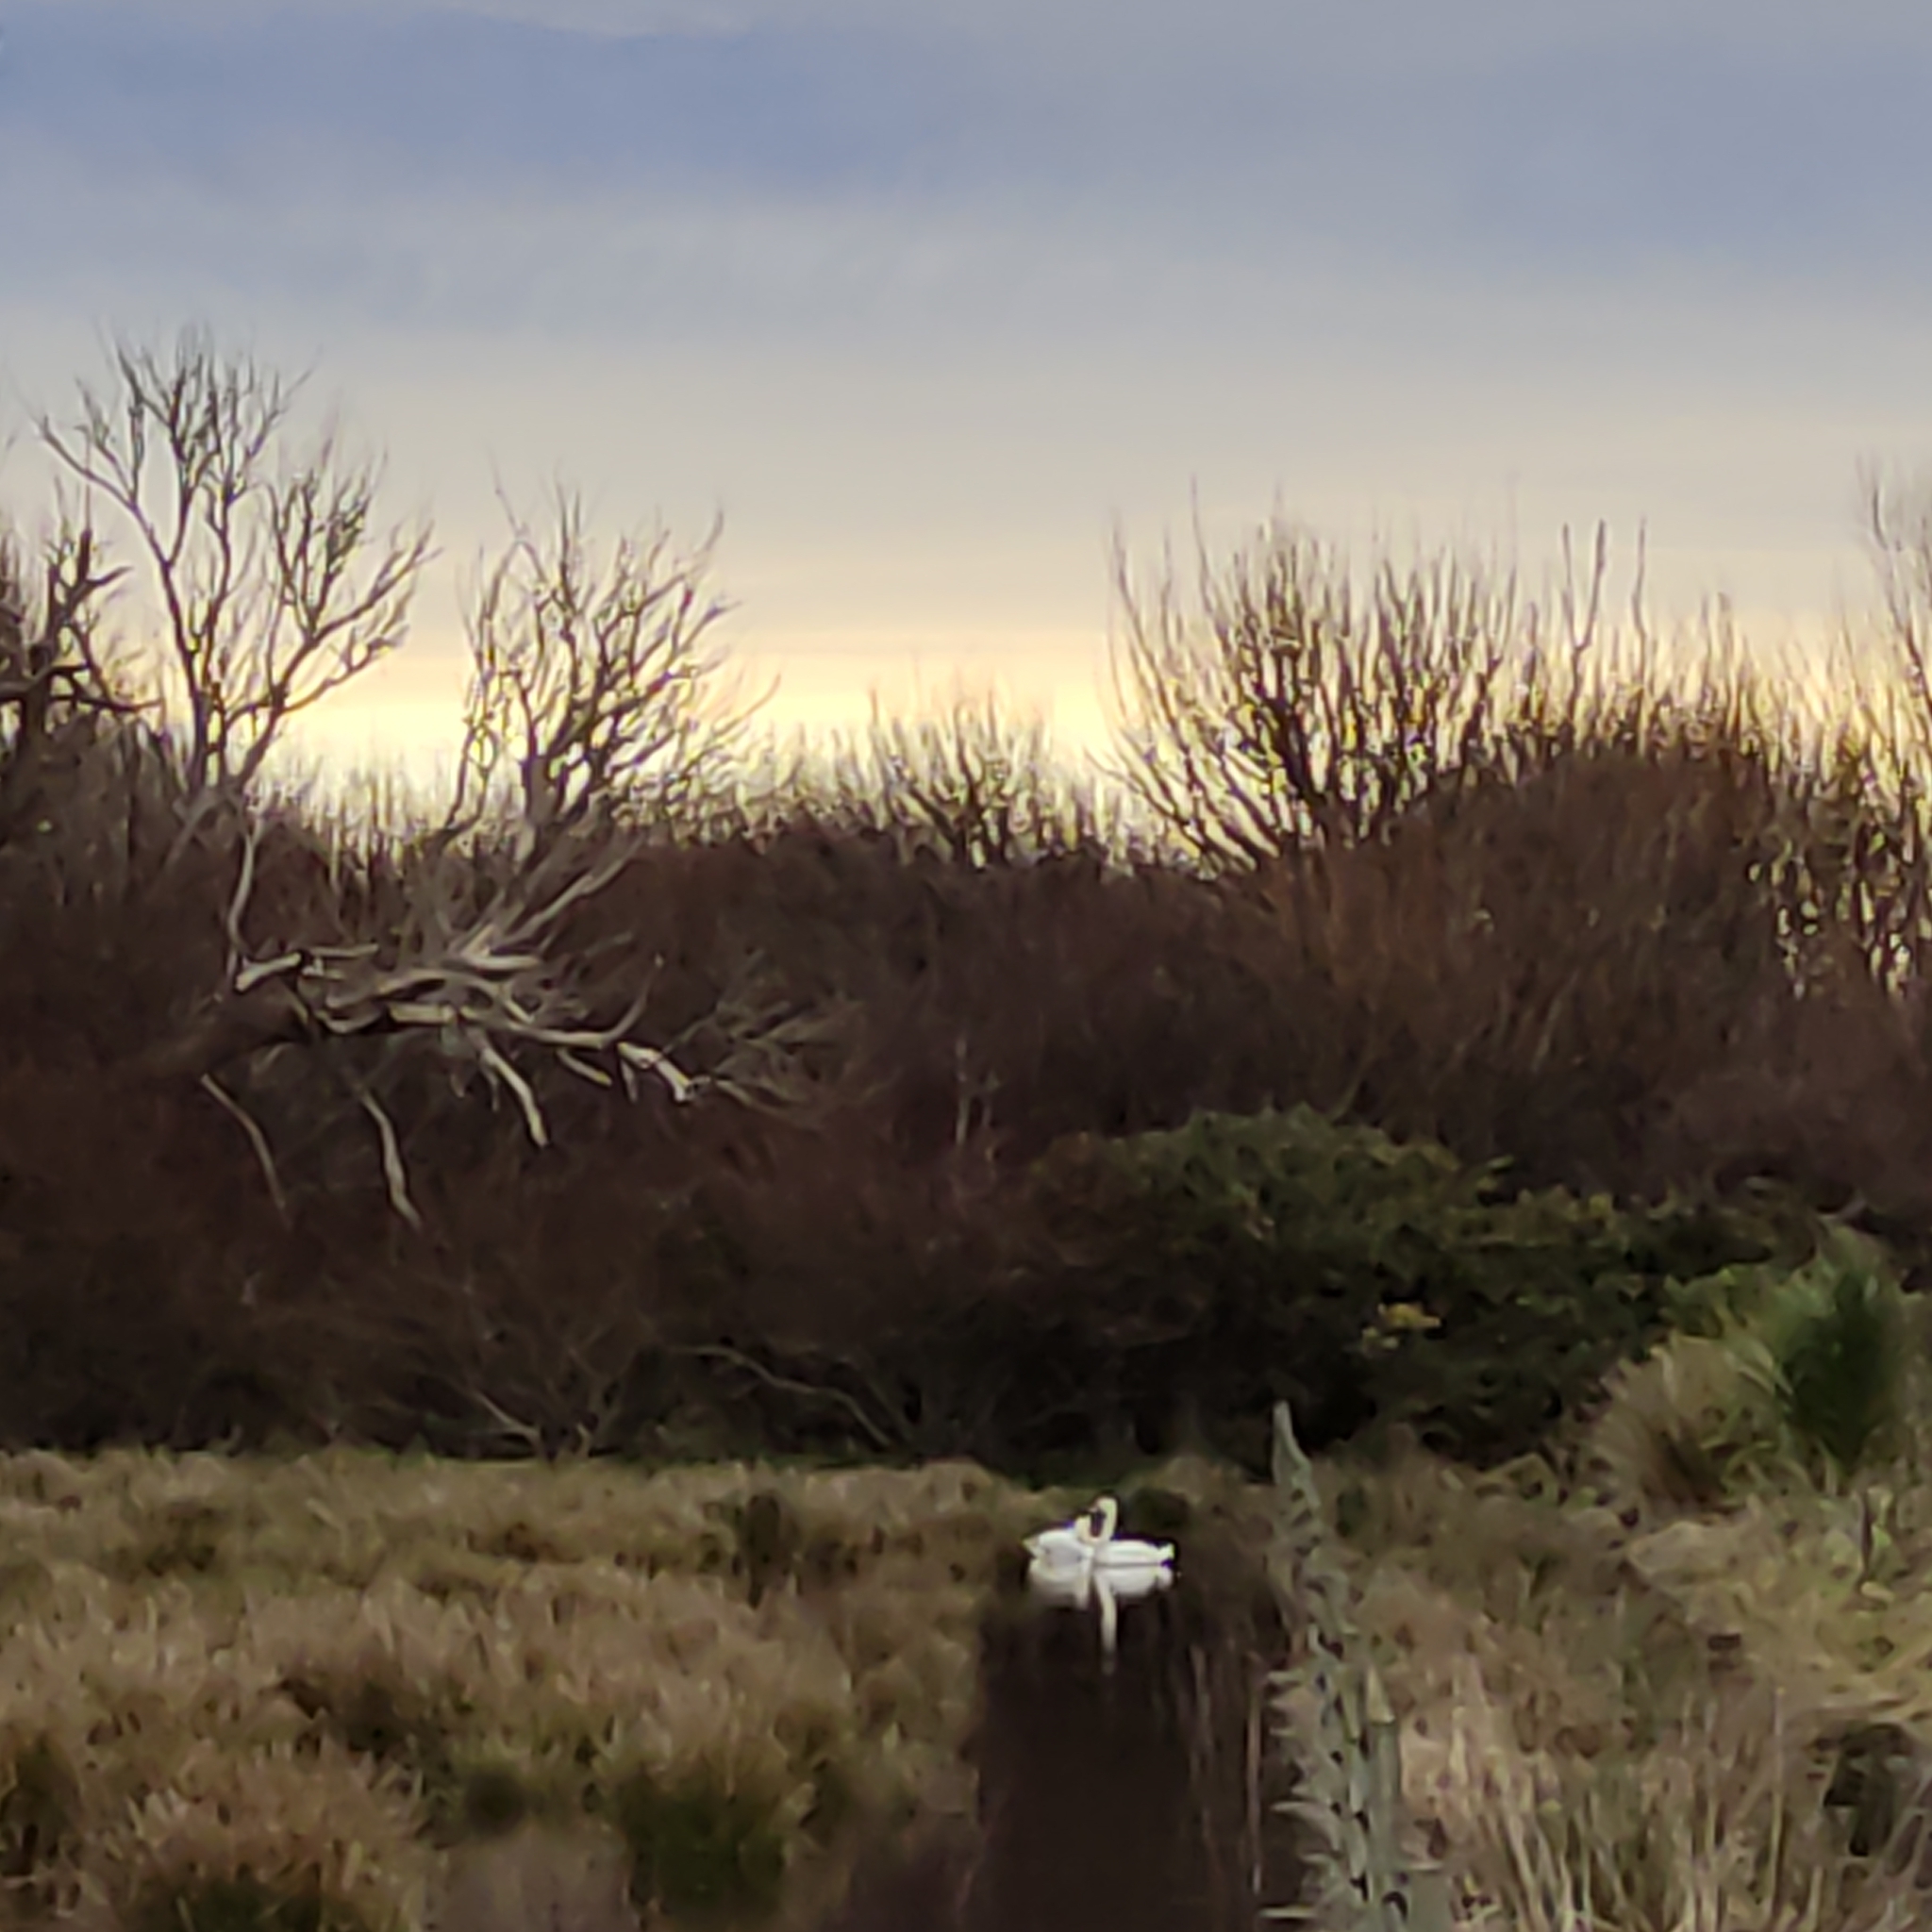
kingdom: Animalia
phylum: Chordata
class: Aves
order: Anseriformes
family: Anatidae
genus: Cygnus
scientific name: Cygnus olor
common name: Mute swan
